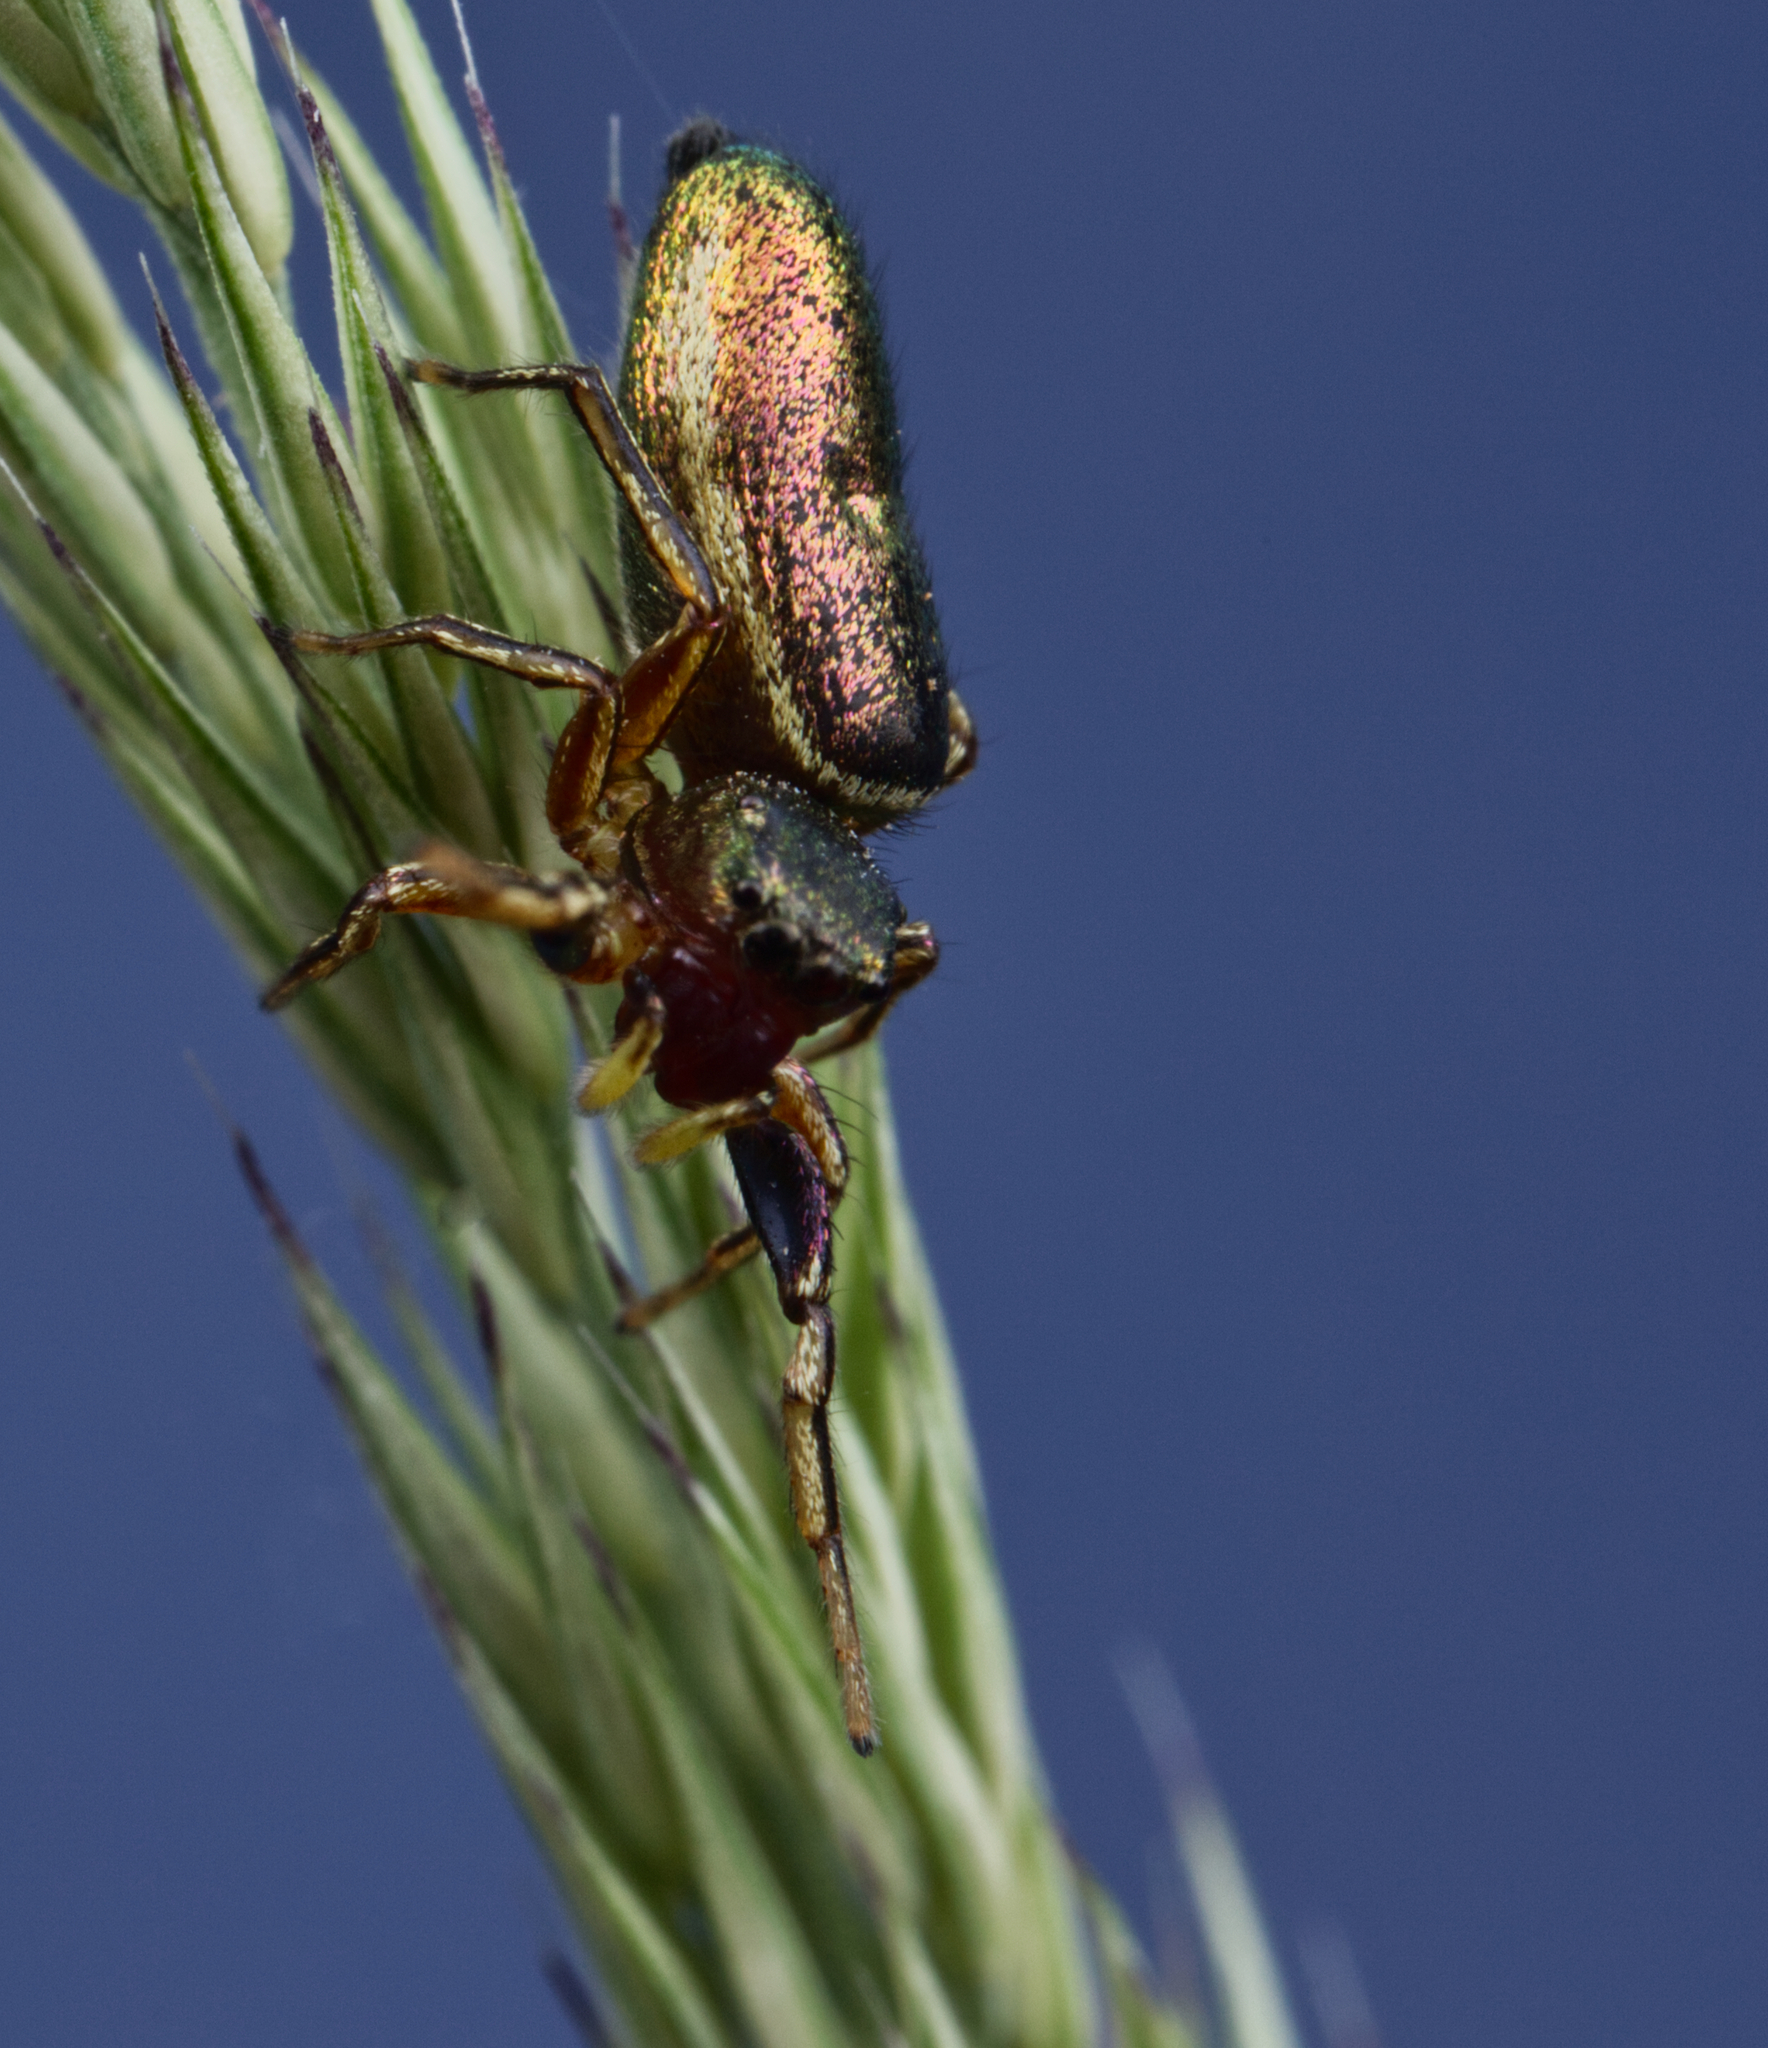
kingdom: Animalia
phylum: Arthropoda
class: Arachnida
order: Araneae
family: Salticidae
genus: Tutelina
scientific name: Tutelina elegans
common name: Thin-spined jumping spider
